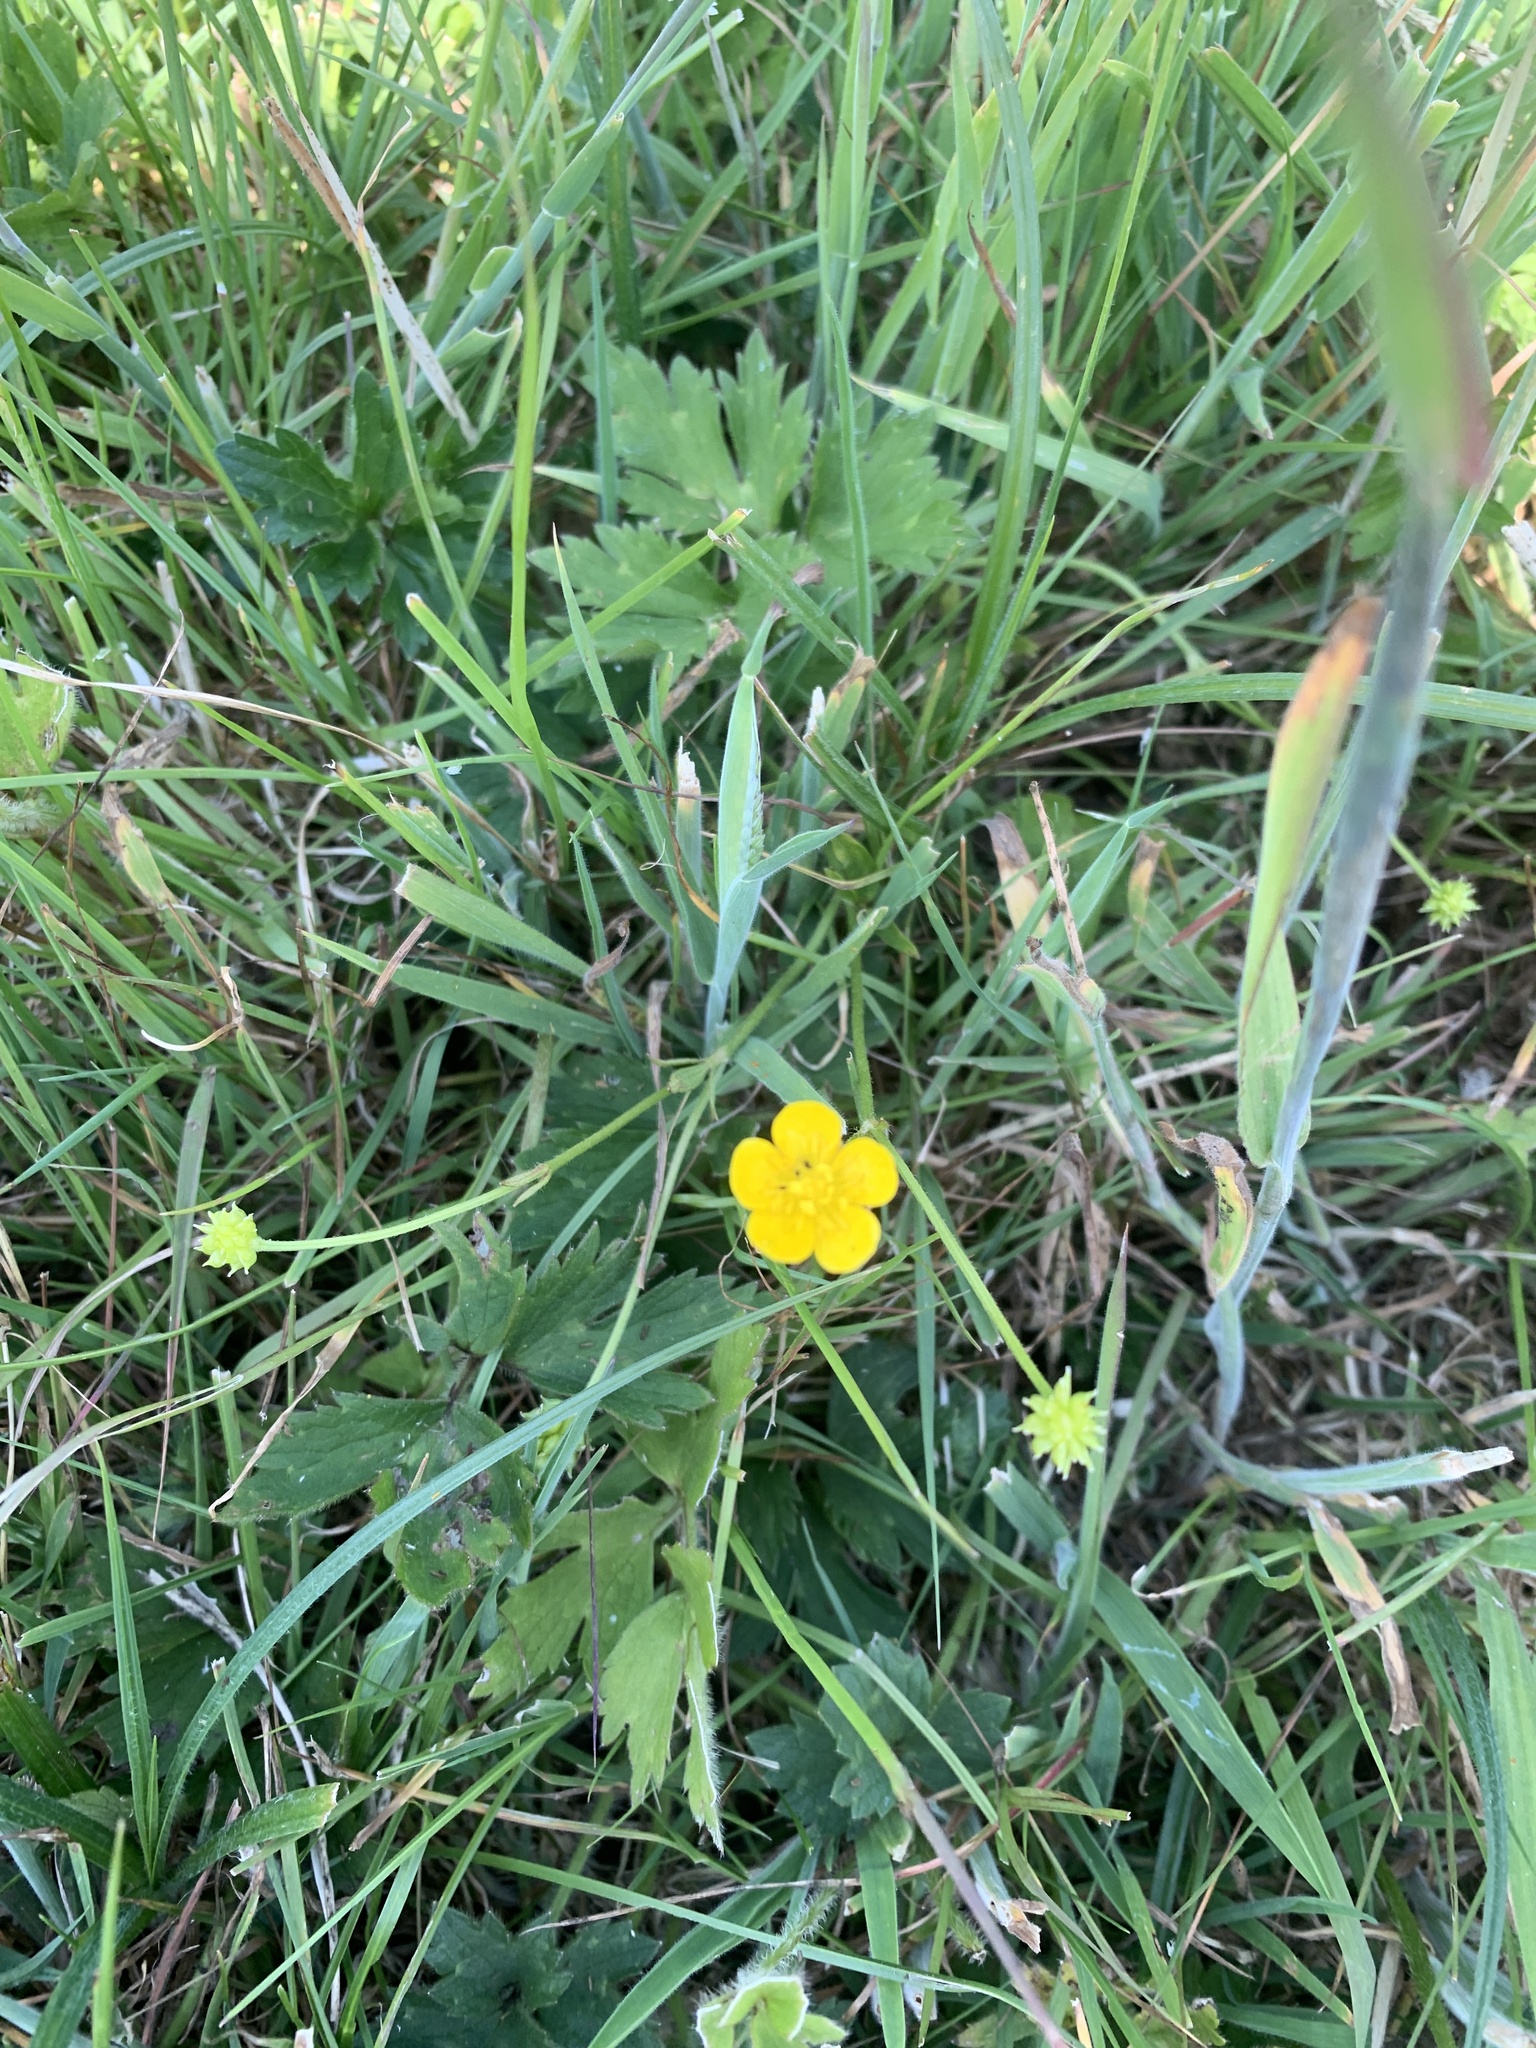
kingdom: Plantae
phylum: Tracheophyta
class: Magnoliopsida
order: Ranunculales
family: Ranunculaceae
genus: Ranunculus
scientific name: Ranunculus acris
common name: Meadow buttercup
